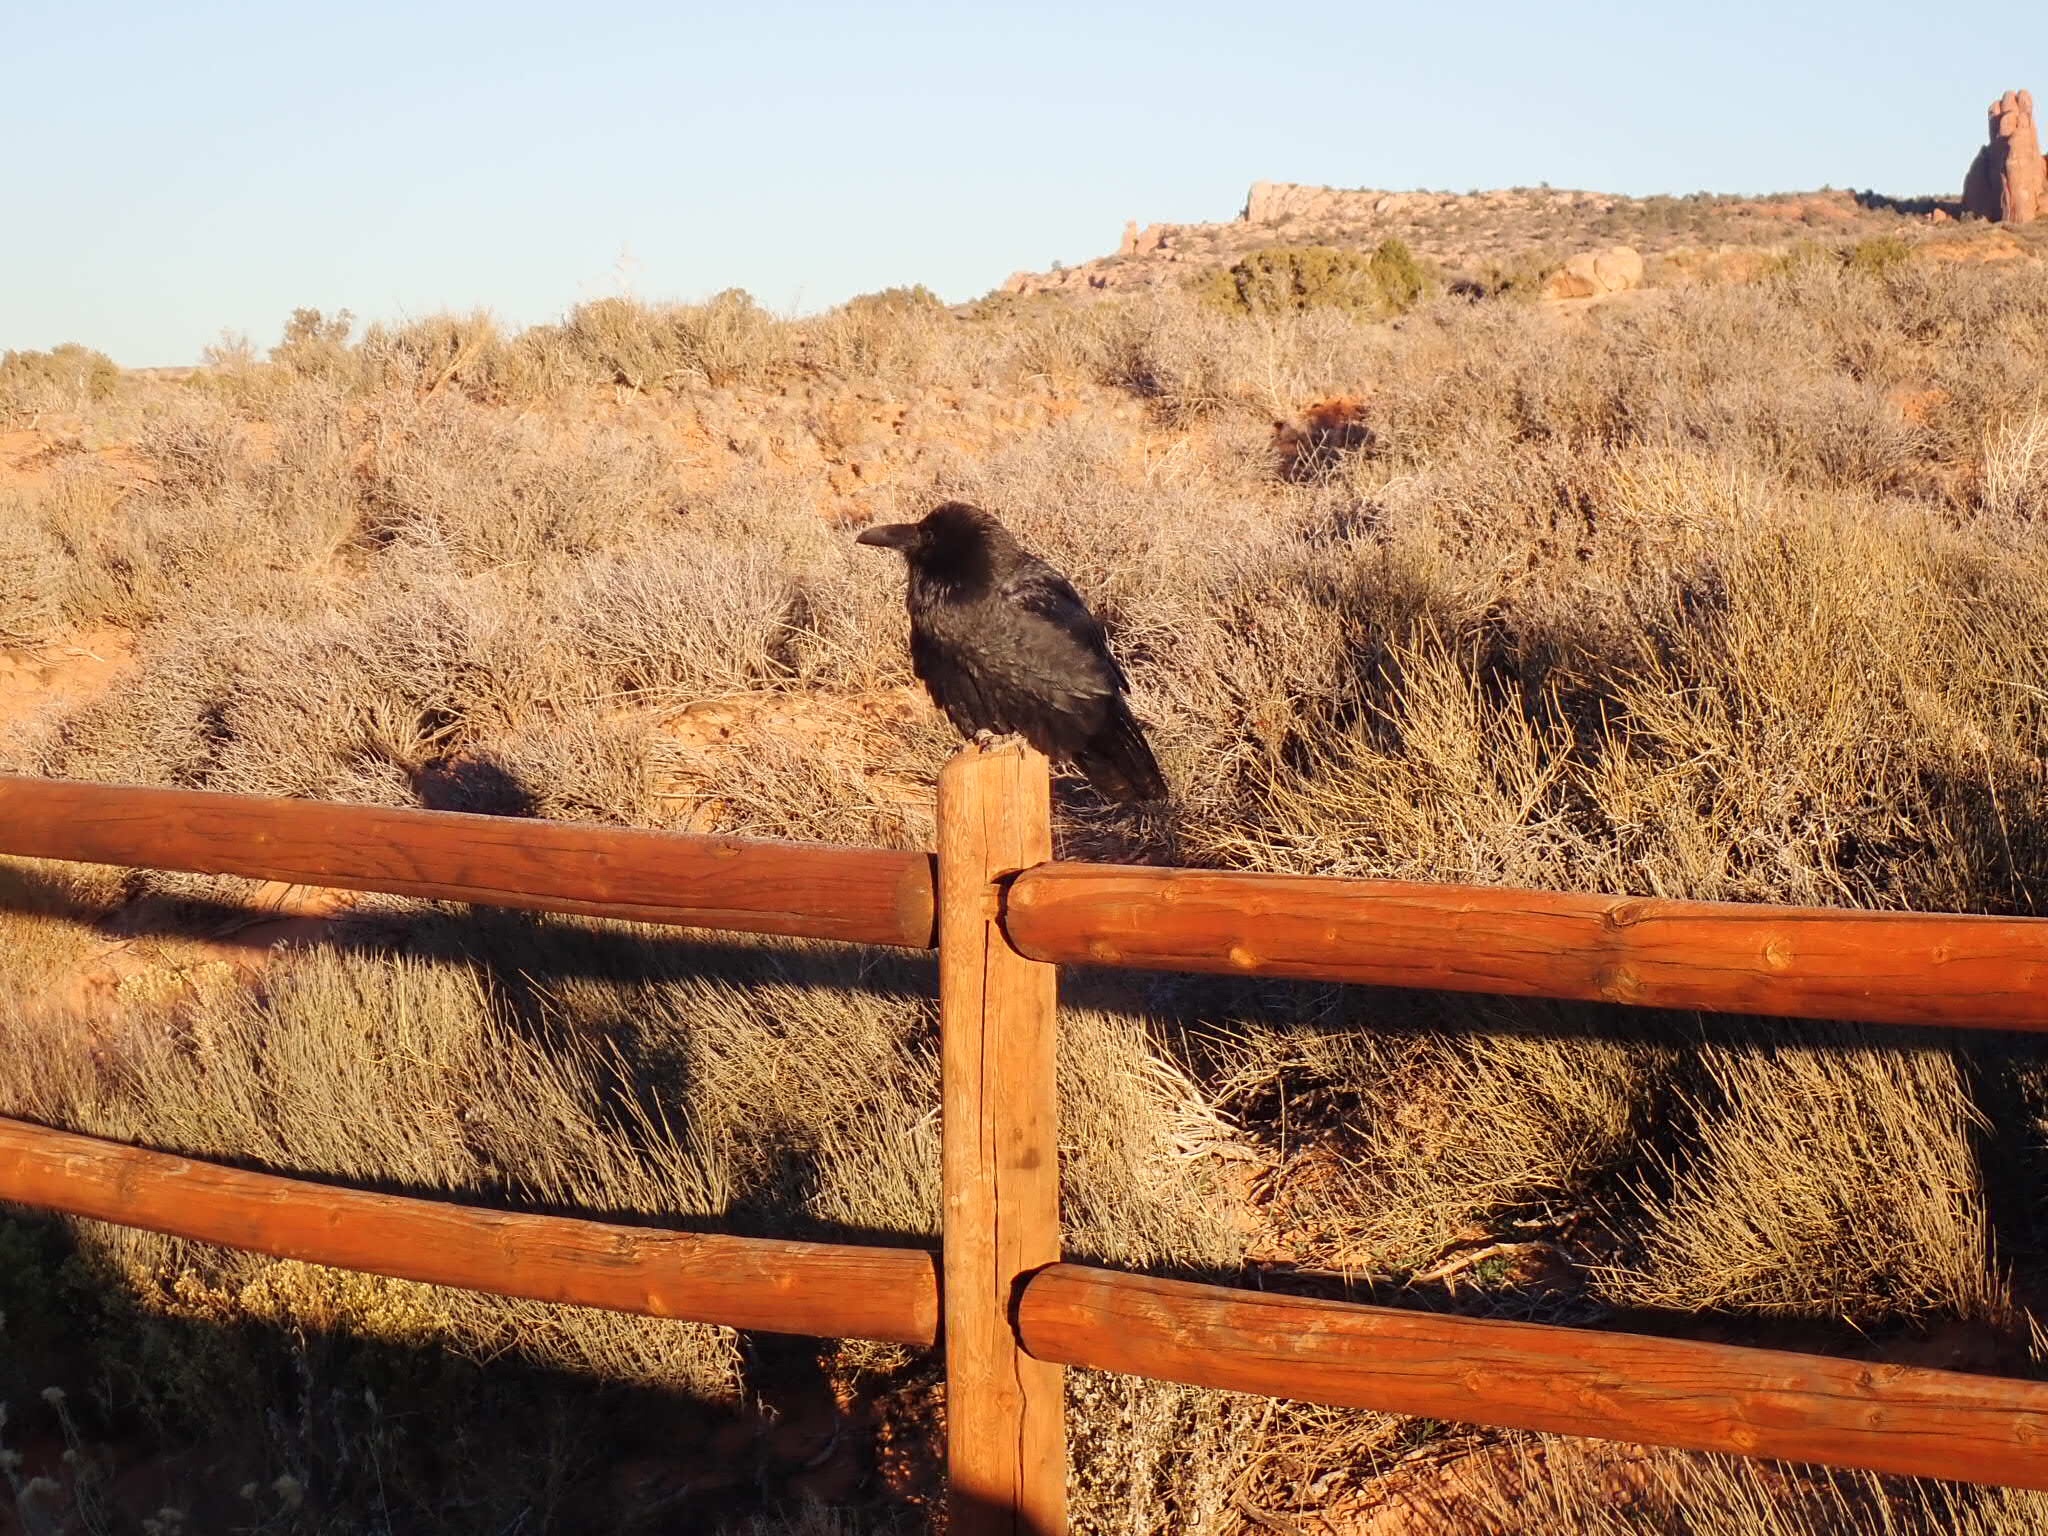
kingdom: Animalia
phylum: Chordata
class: Aves
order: Passeriformes
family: Corvidae
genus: Corvus
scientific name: Corvus corax
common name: Common raven
